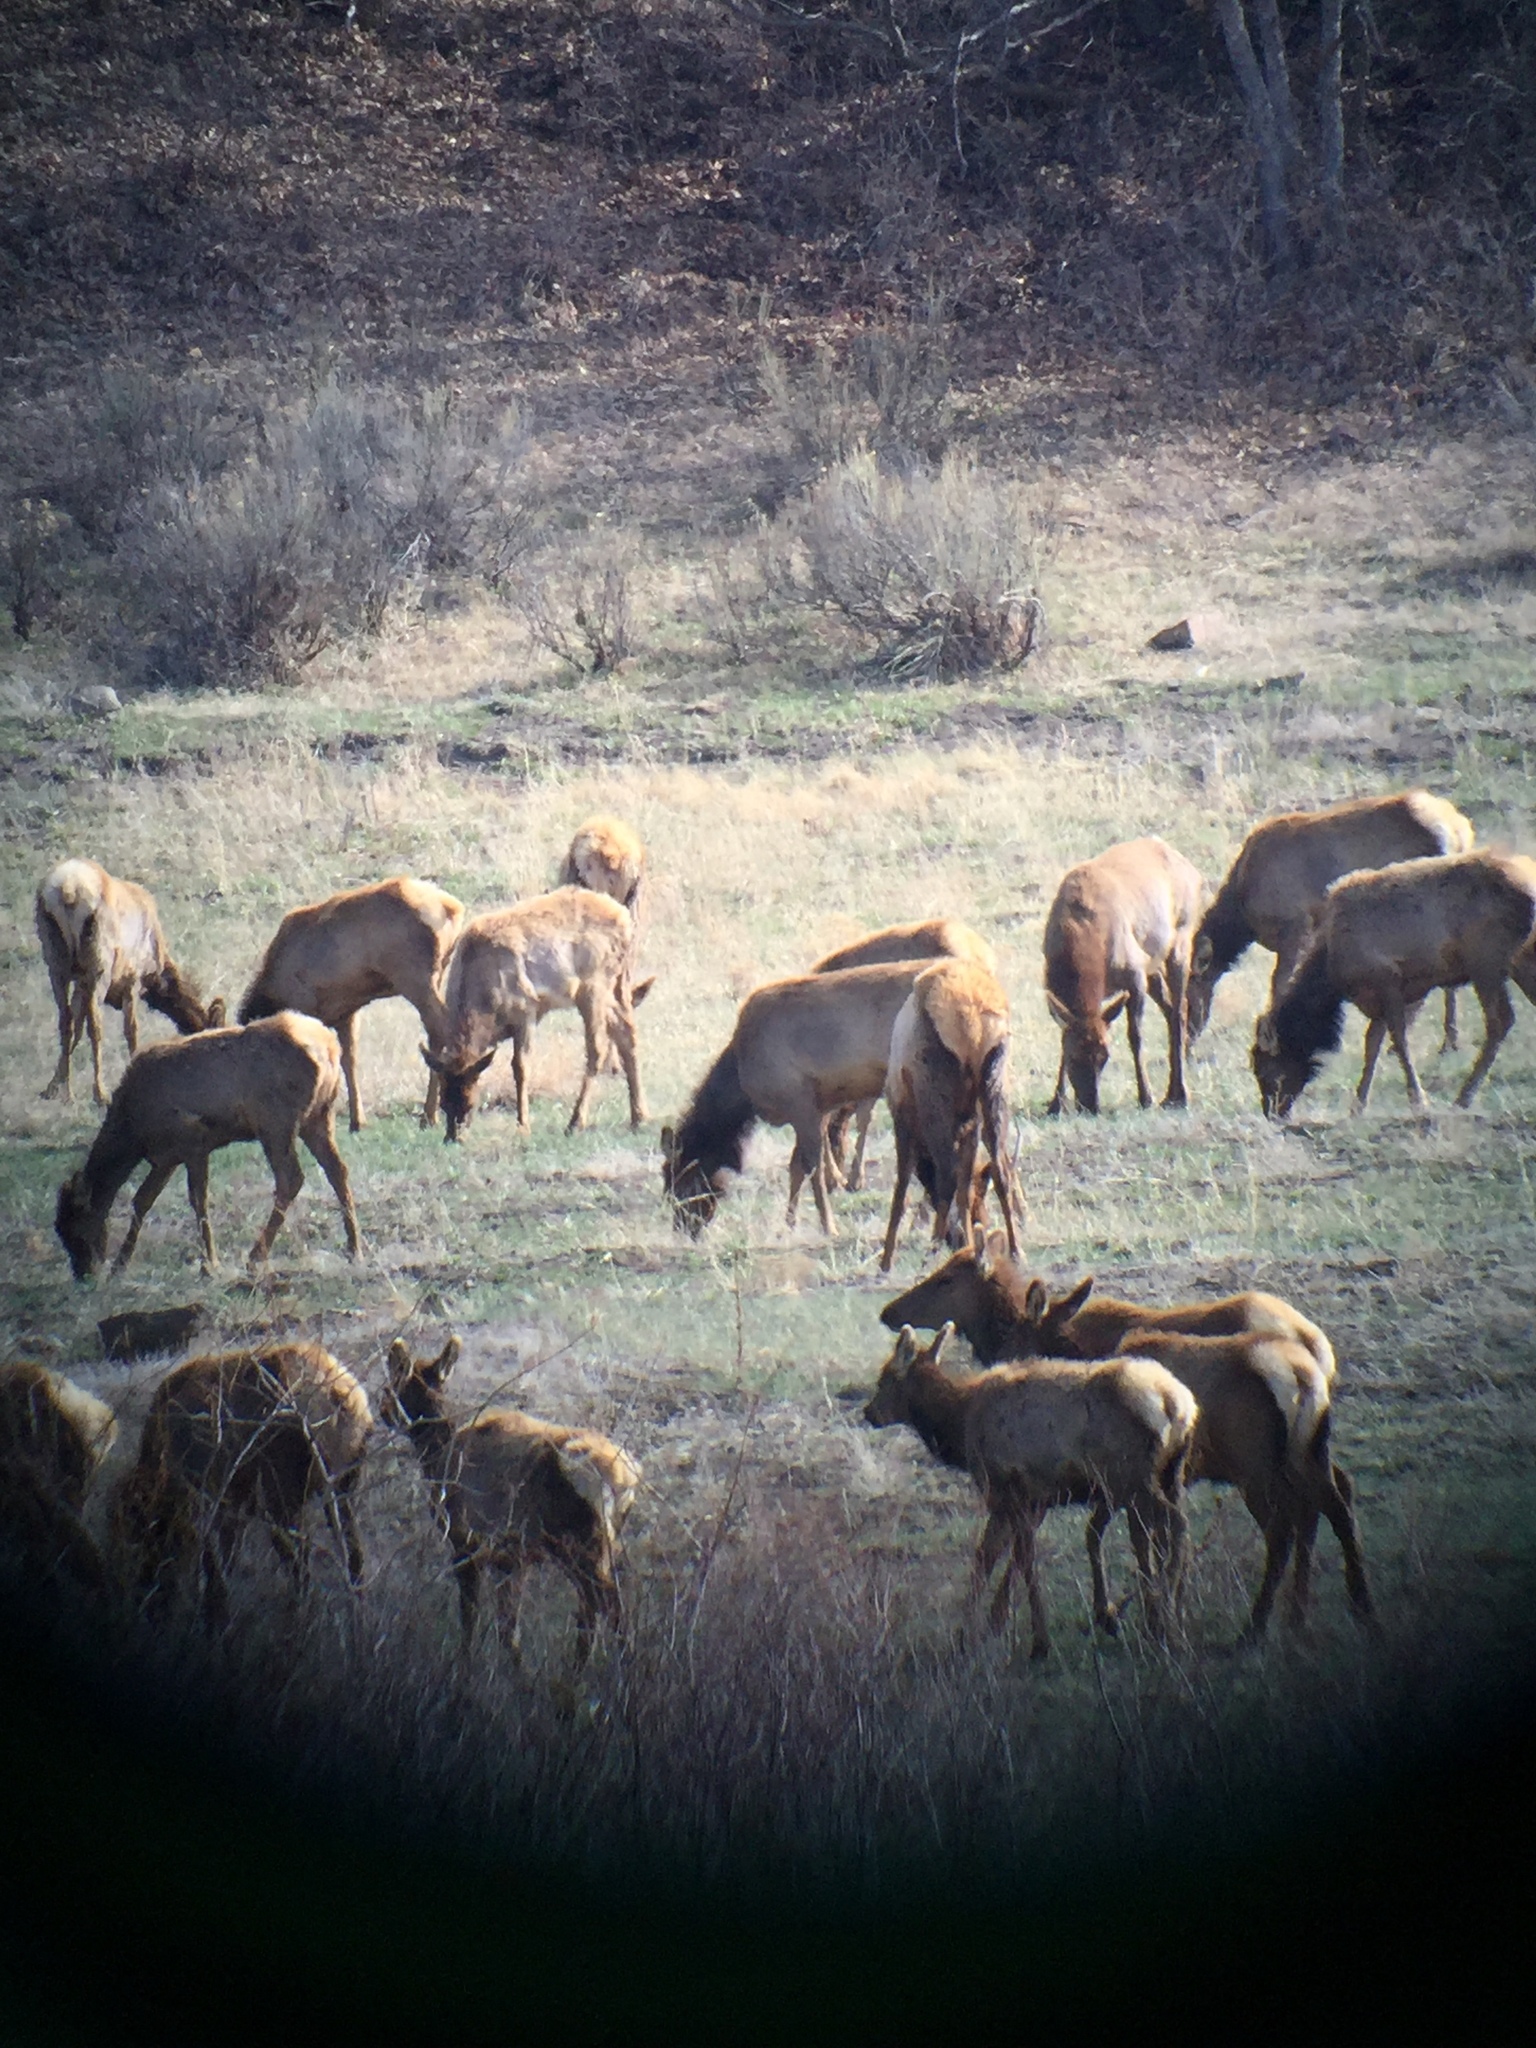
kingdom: Animalia
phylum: Chordata
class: Mammalia
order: Artiodactyla
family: Cervidae
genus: Cervus
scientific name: Cervus elaphus
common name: Red deer
